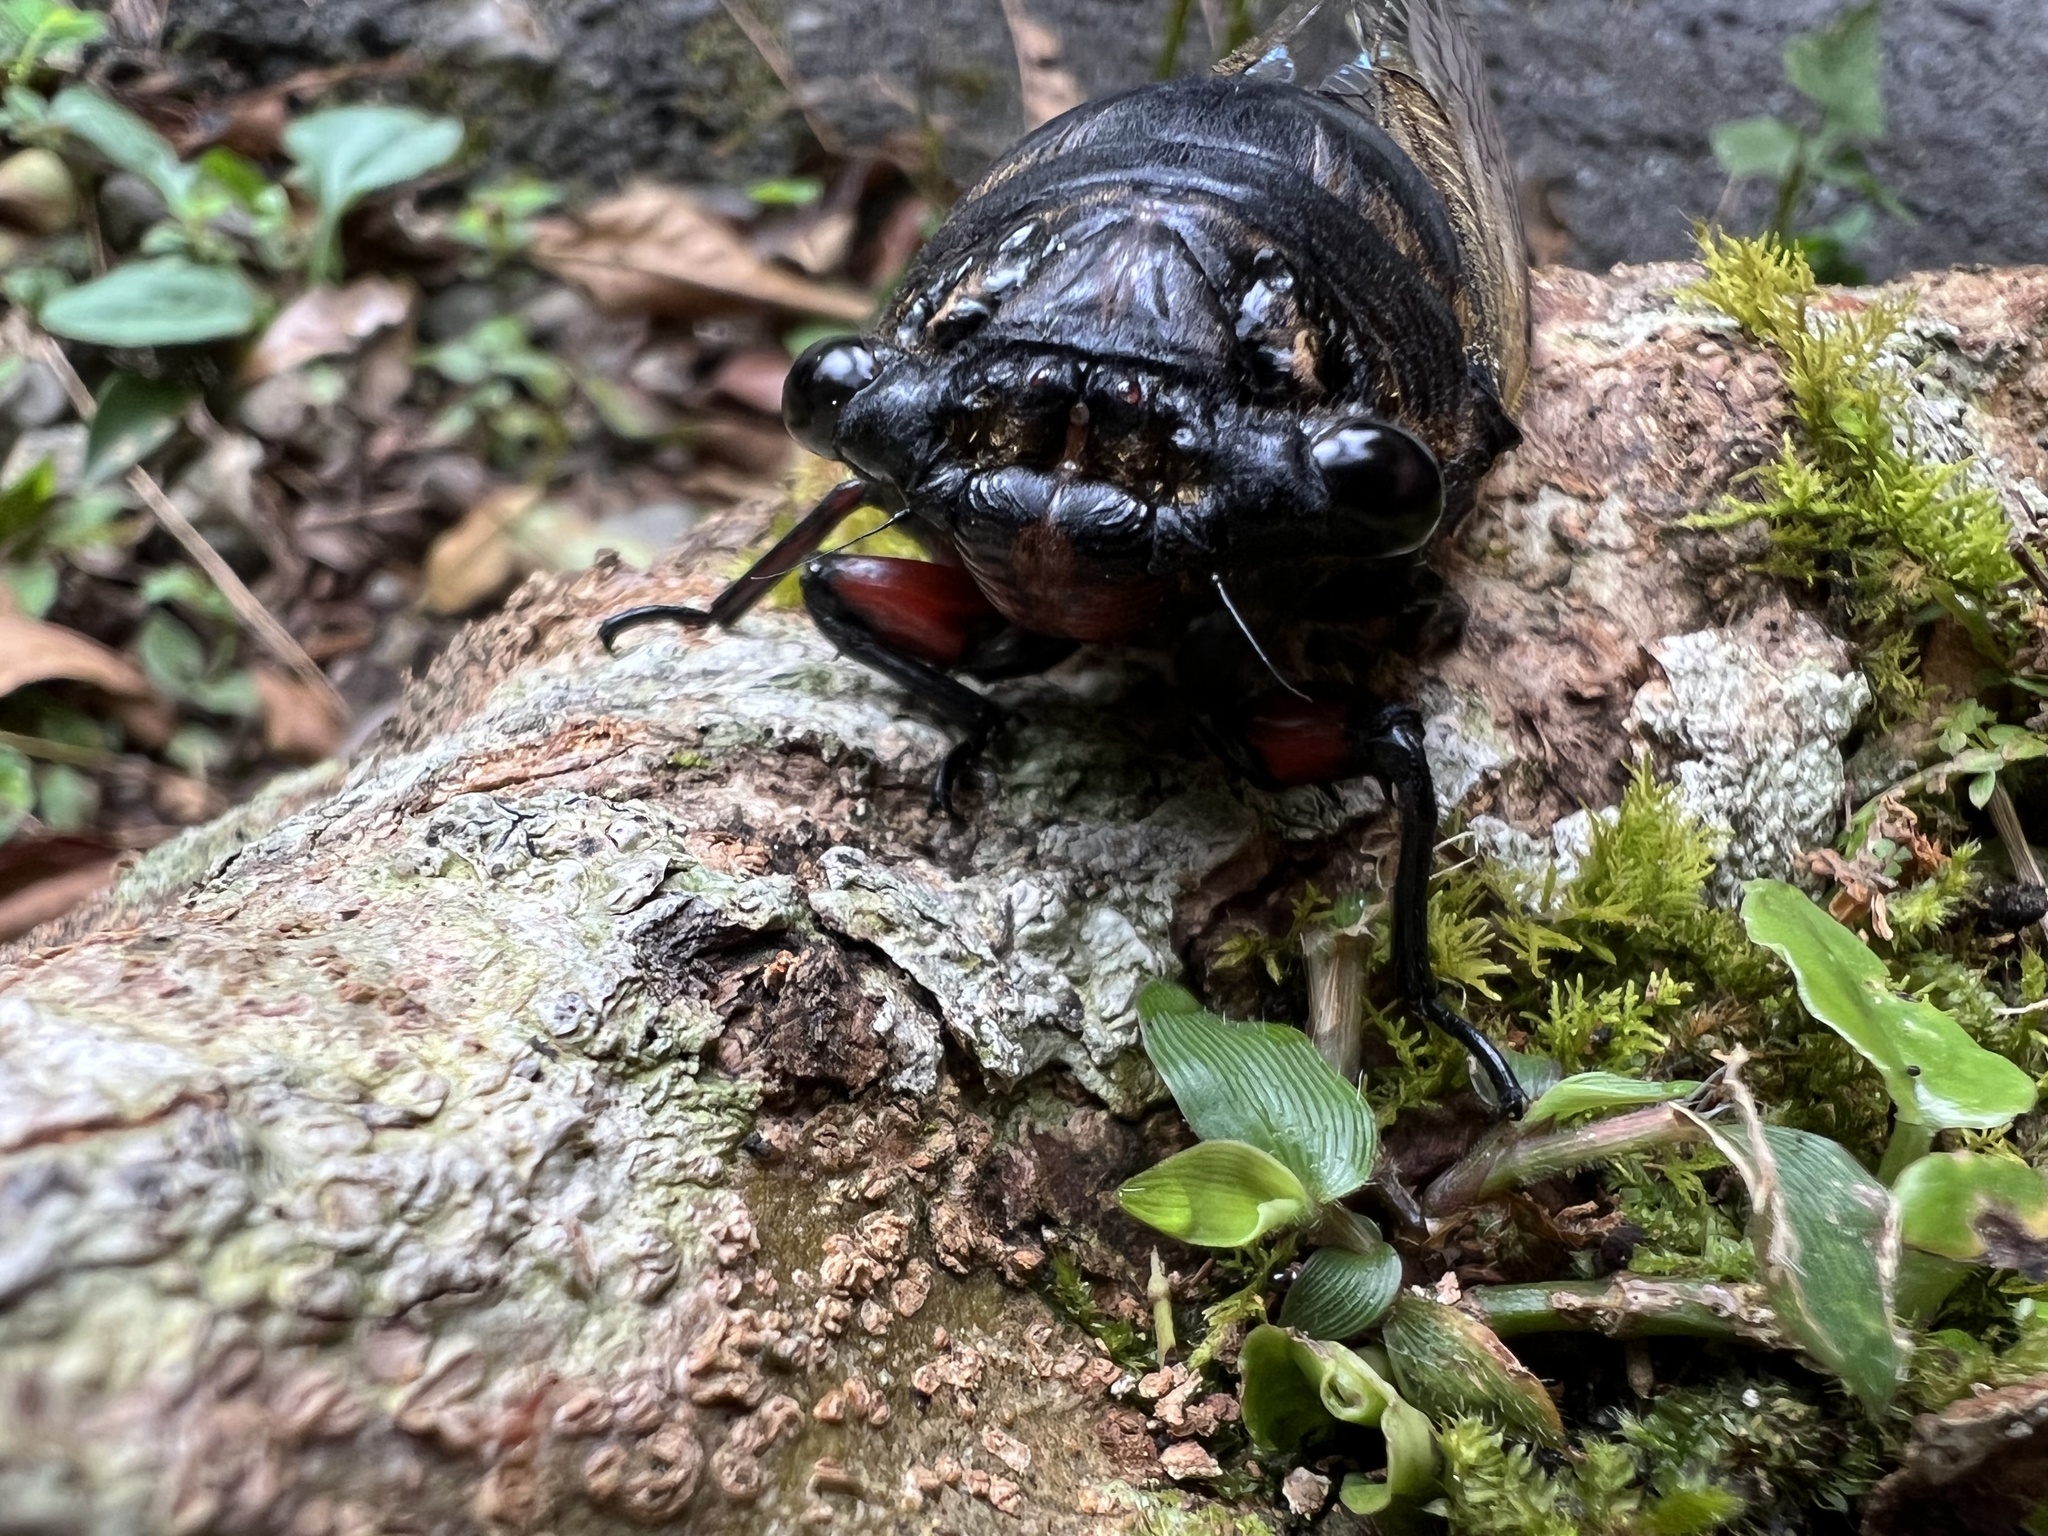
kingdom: Animalia
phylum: Arthropoda
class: Insecta
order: Hemiptera
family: Cicadidae
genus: Cryptotympana
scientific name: Cryptotympana holsti
